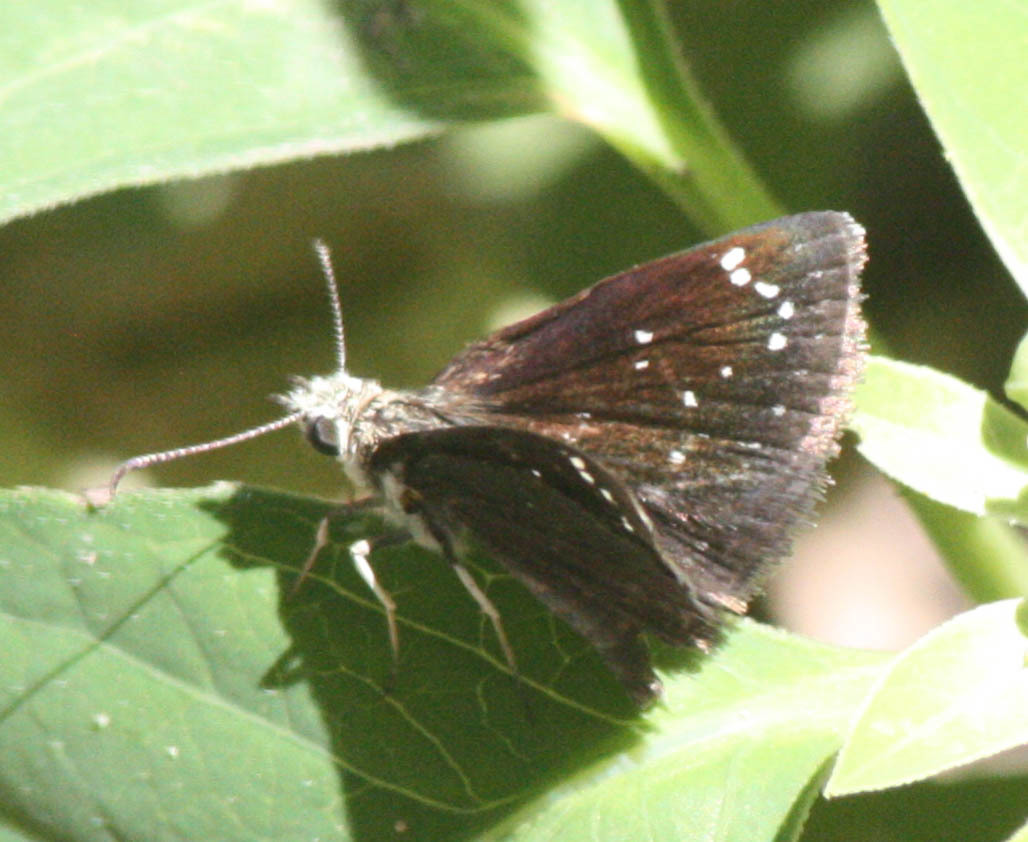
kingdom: Animalia
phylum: Arthropoda
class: Insecta
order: Lepidoptera
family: Hesperiidae
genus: Pholisora
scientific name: Pholisora catullus
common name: Common sootywing
